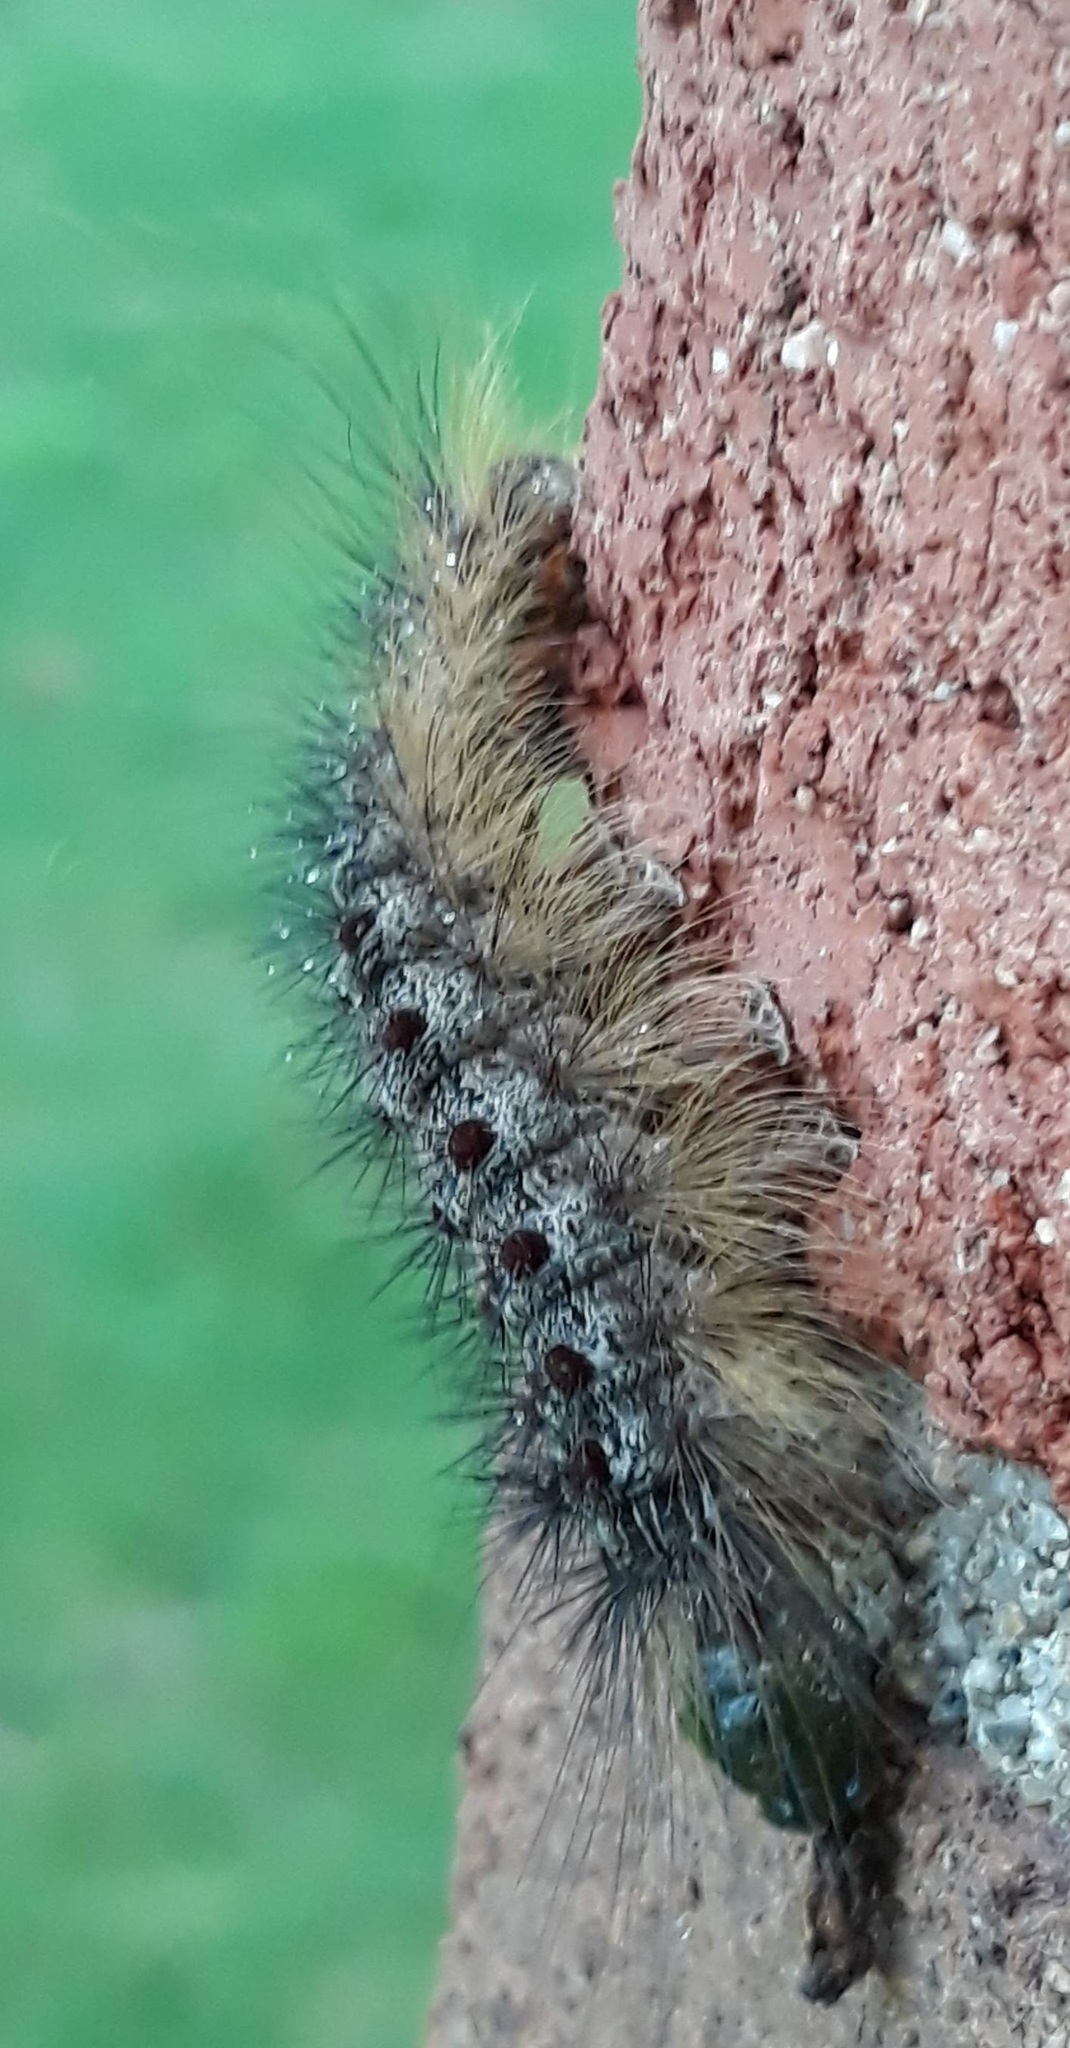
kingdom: Animalia
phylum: Arthropoda
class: Insecta
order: Lepidoptera
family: Erebidae
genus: Lymantria
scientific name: Lymantria dispar
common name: Gypsy moth
